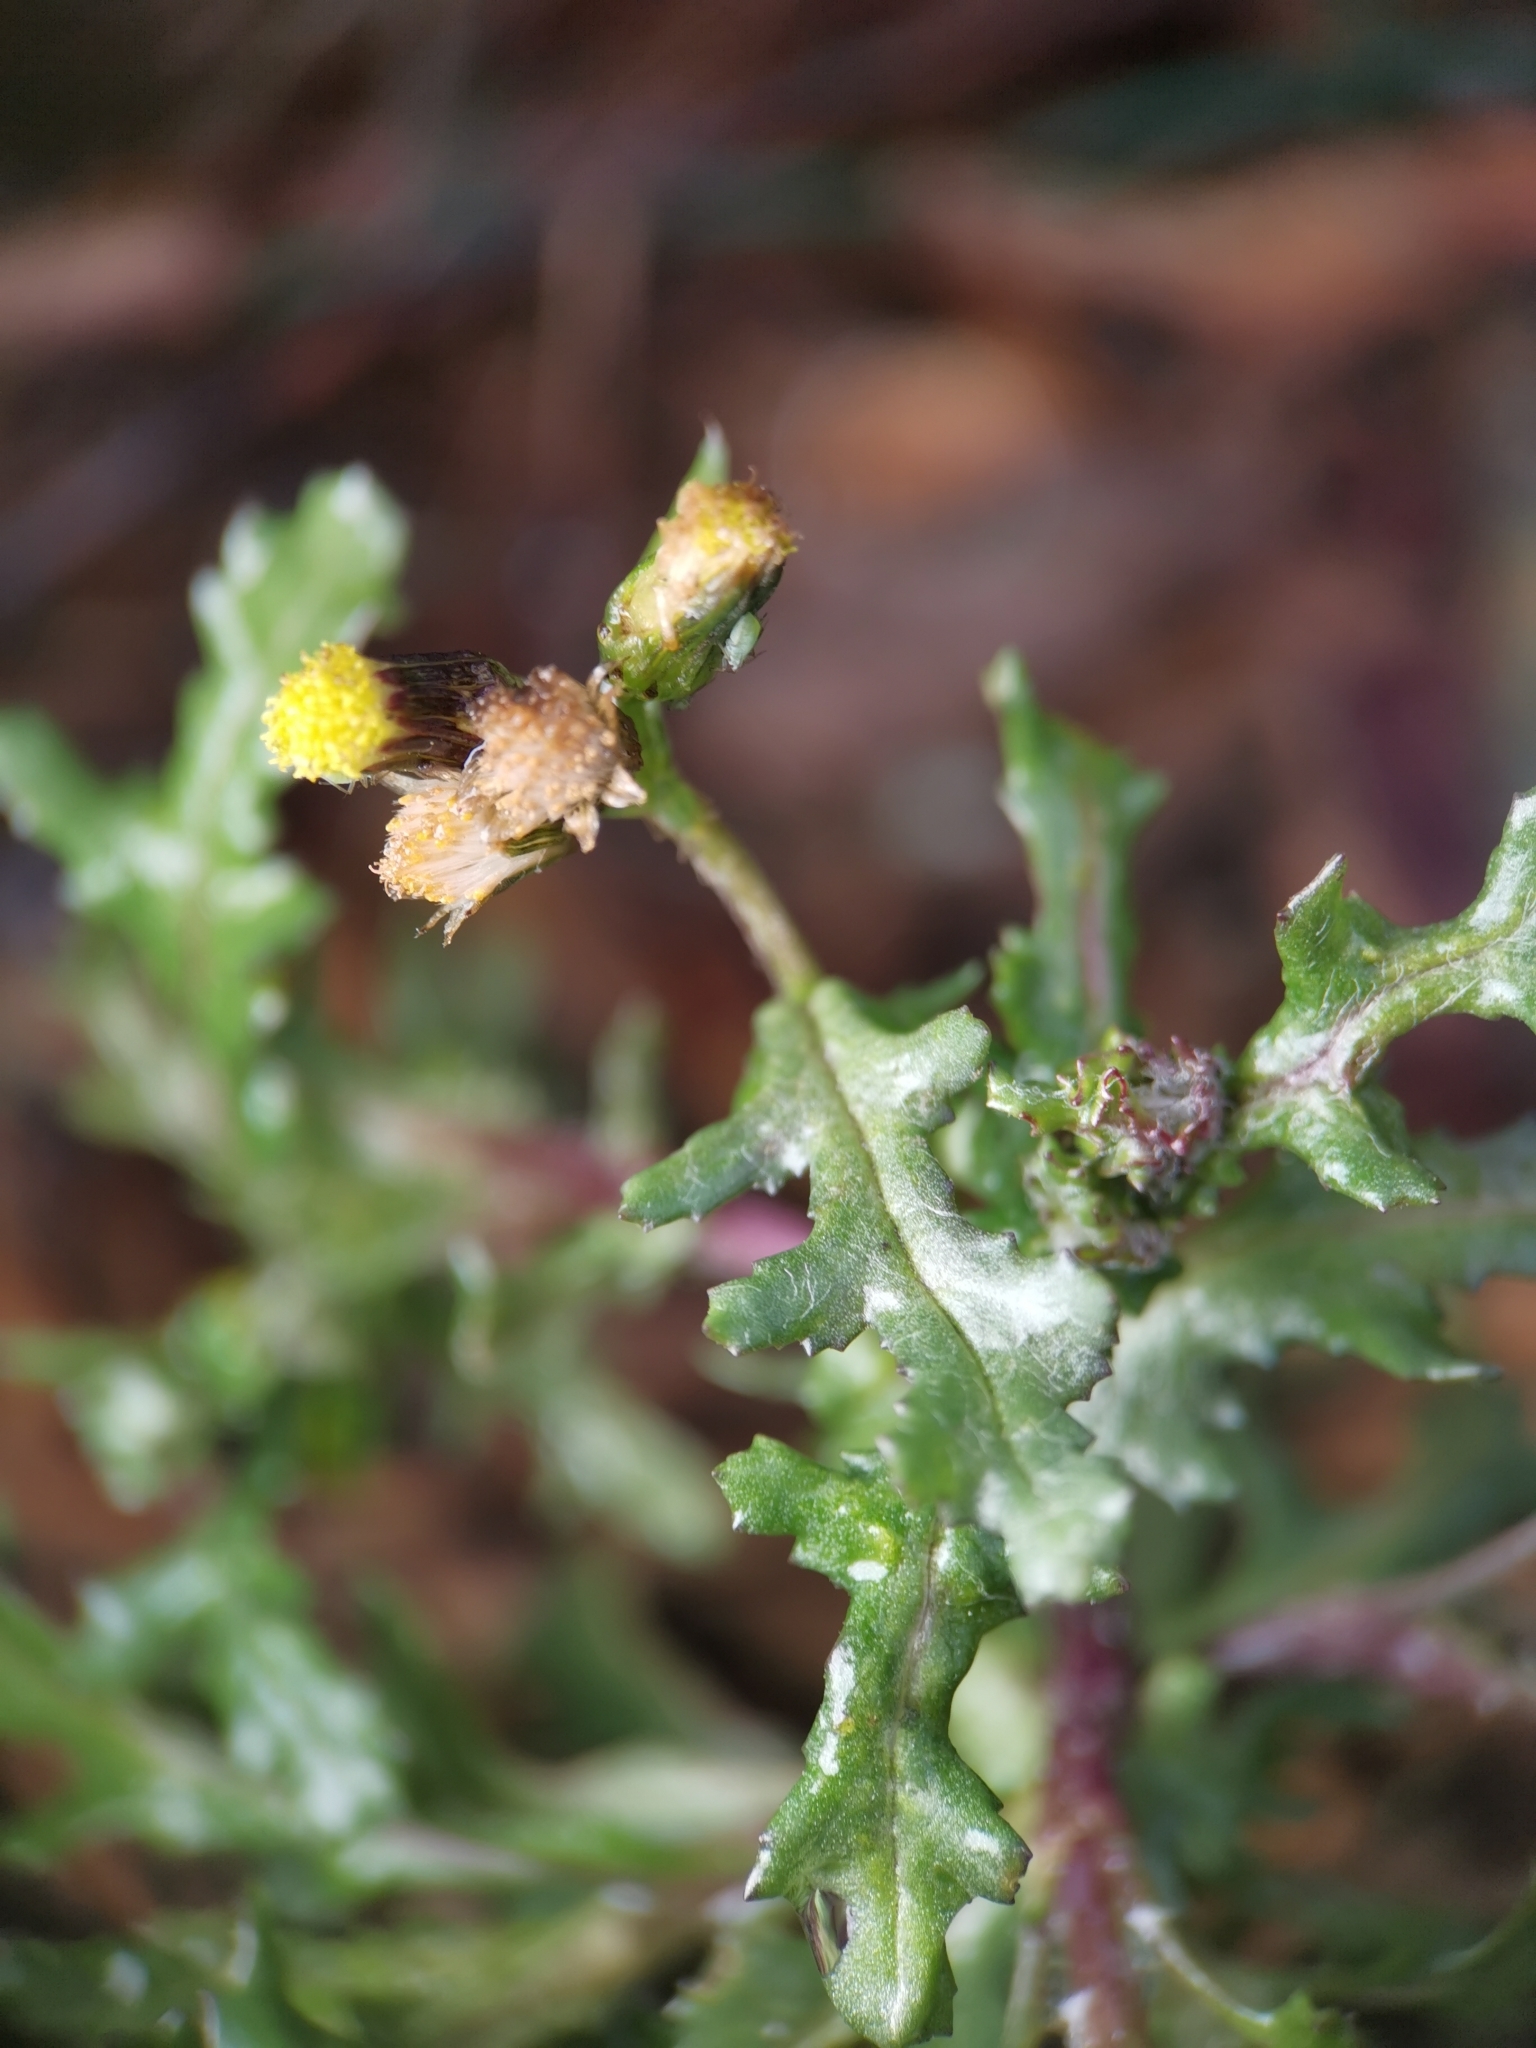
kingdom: Plantae
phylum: Tracheophyta
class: Magnoliopsida
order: Asterales
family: Asteraceae
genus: Senecio
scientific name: Senecio vulgaris
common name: Old-man-in-the-spring
